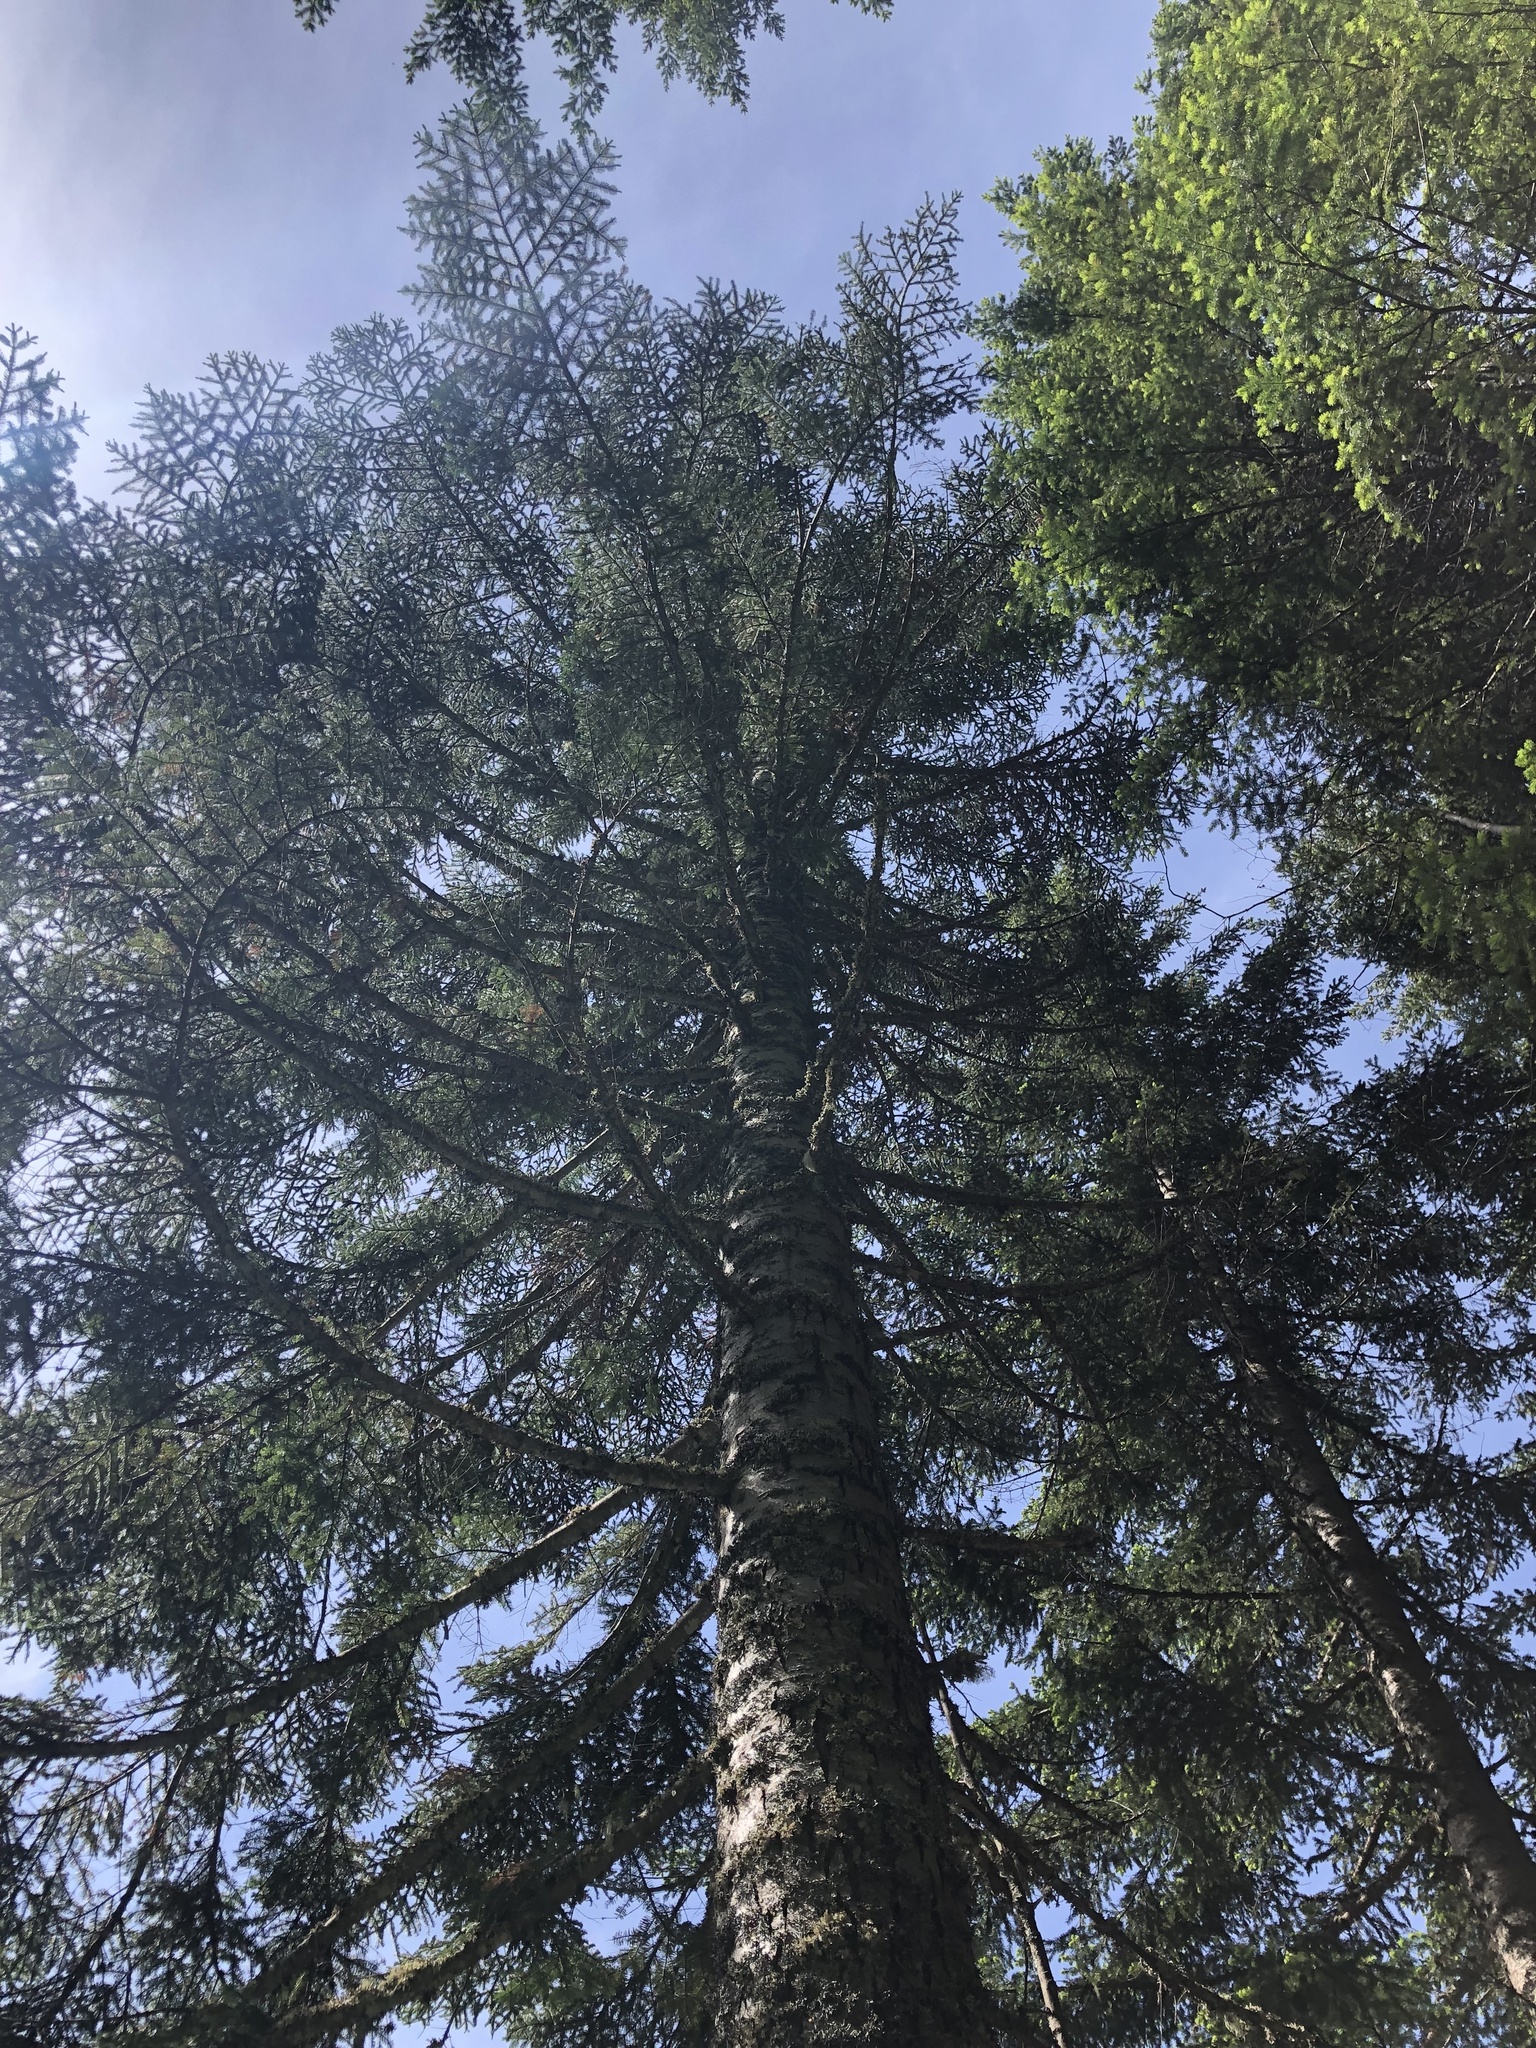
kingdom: Plantae
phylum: Tracheophyta
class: Pinopsida
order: Pinales
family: Pinaceae
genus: Abies
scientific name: Abies procera
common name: Noble fir
